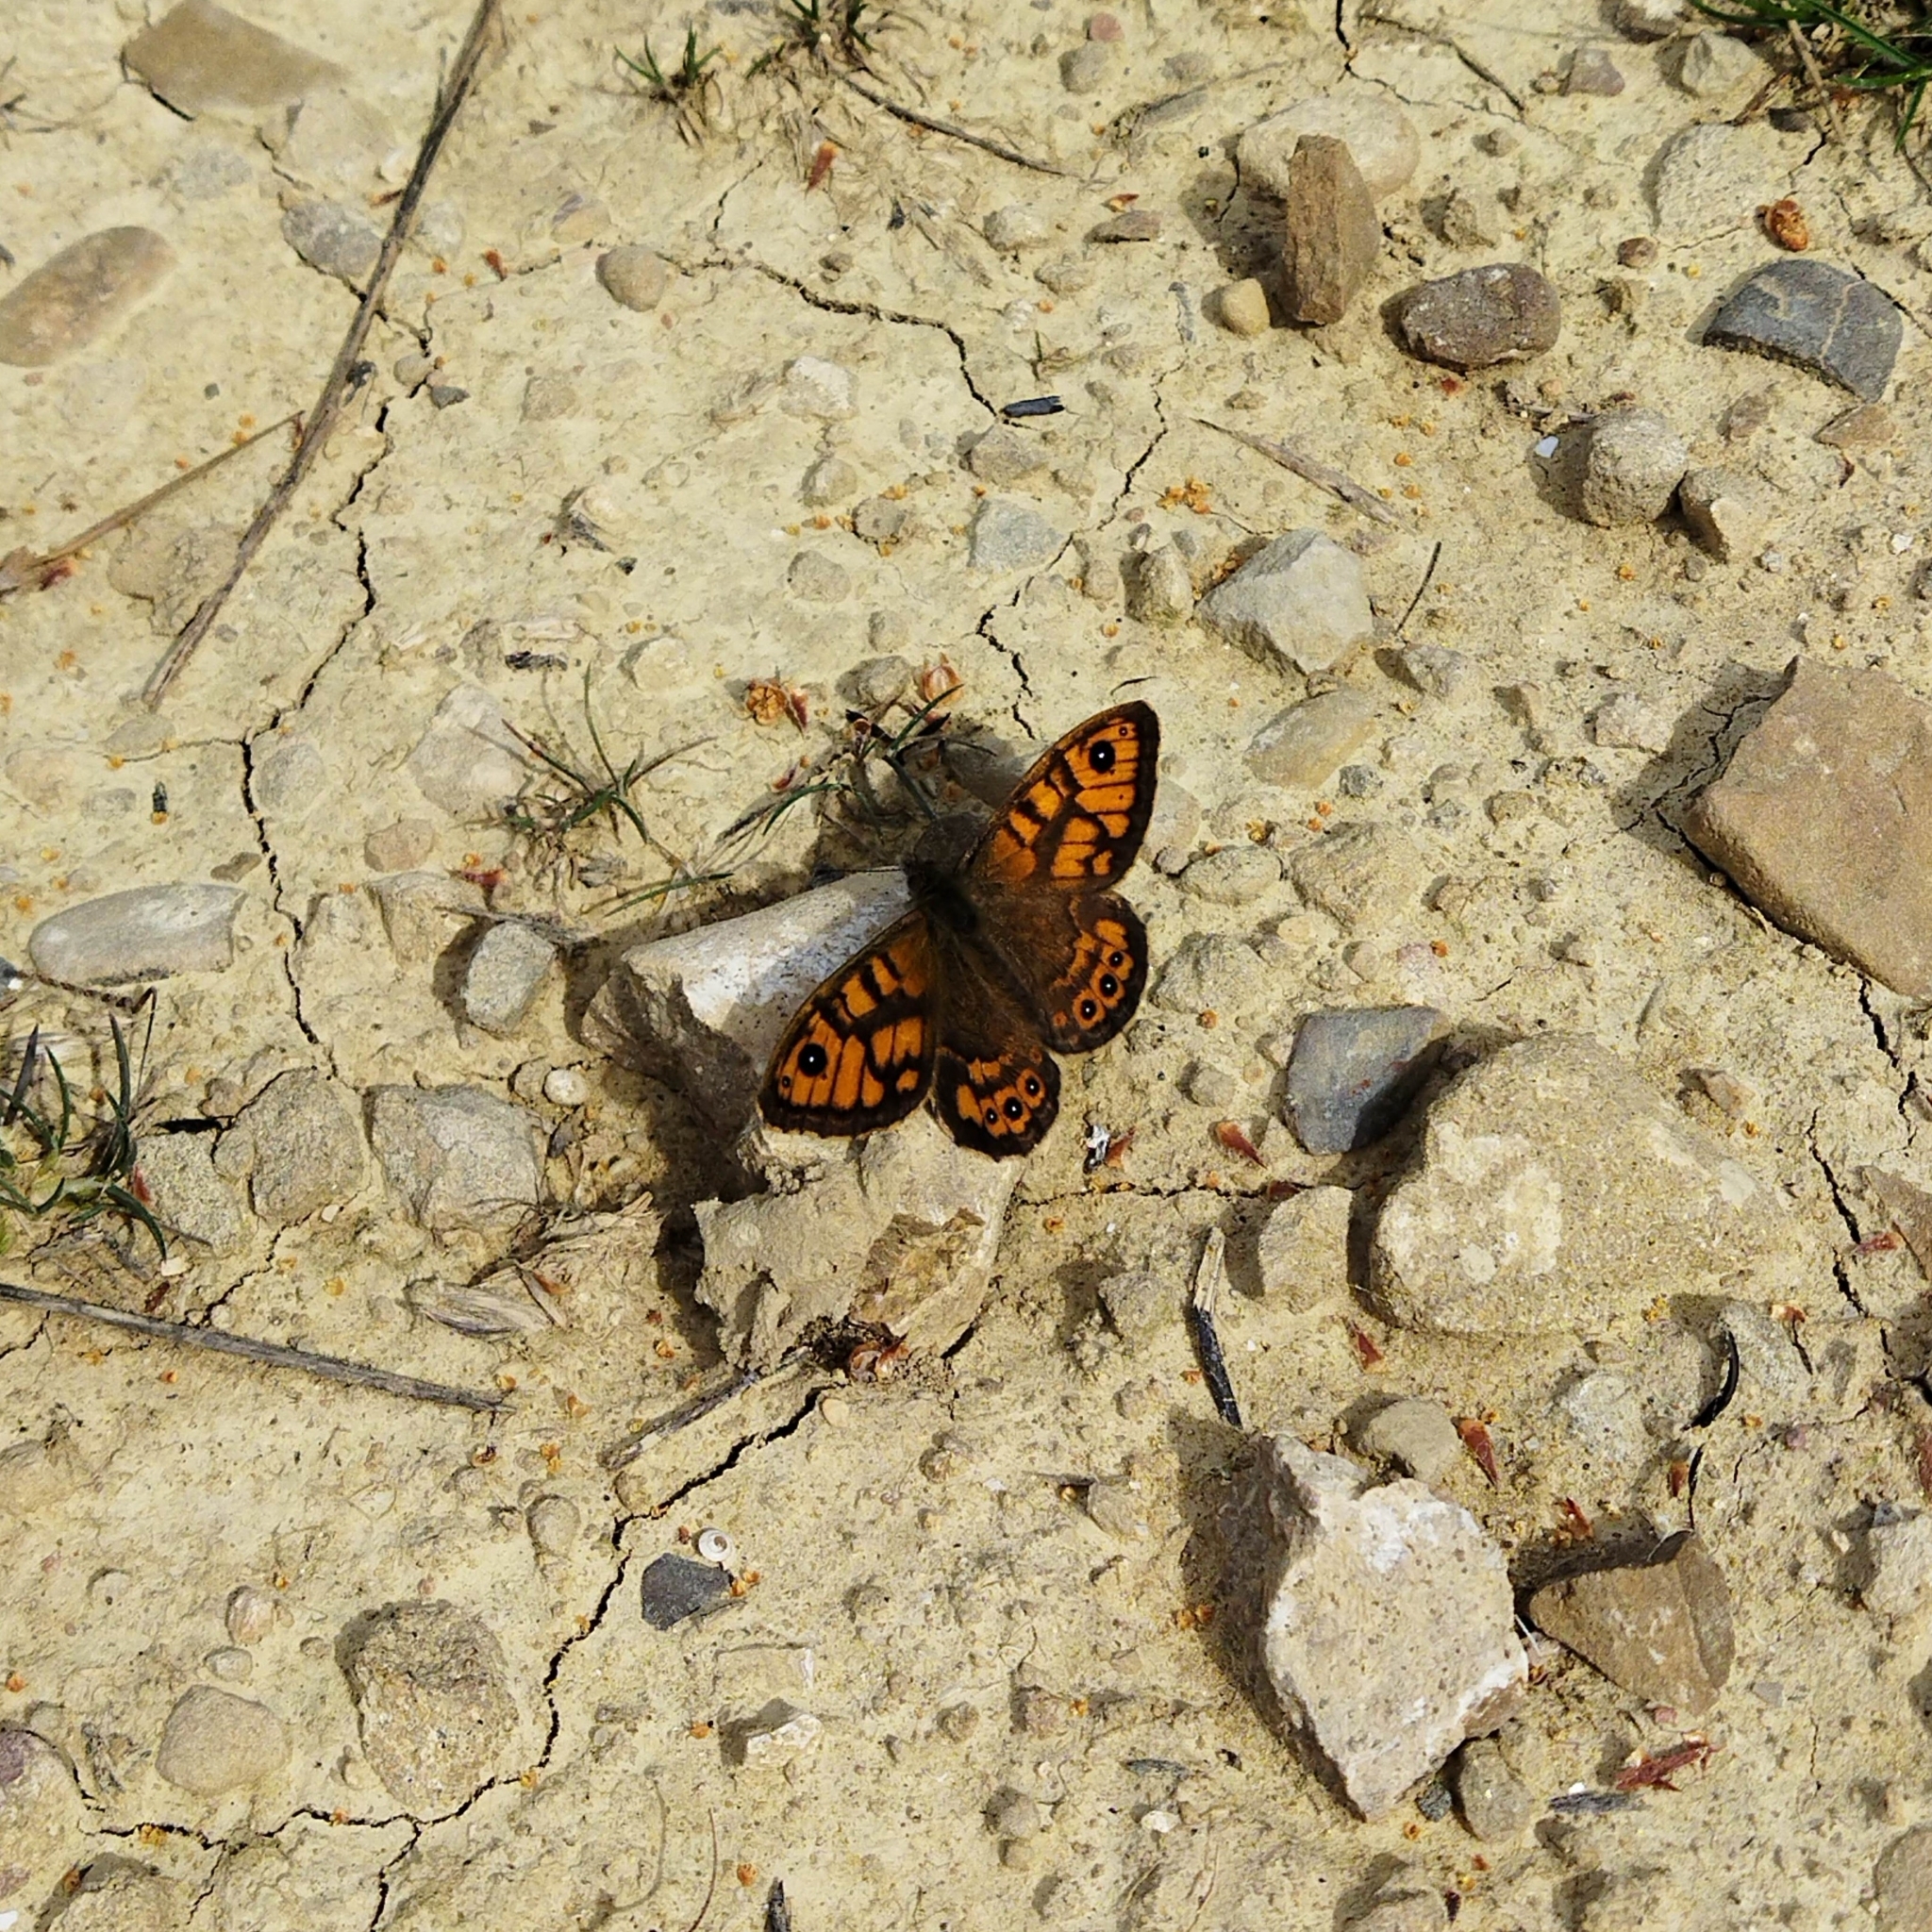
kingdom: Animalia
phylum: Arthropoda
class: Insecta
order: Lepidoptera
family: Nymphalidae
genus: Pararge
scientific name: Pararge Lasiommata megera
